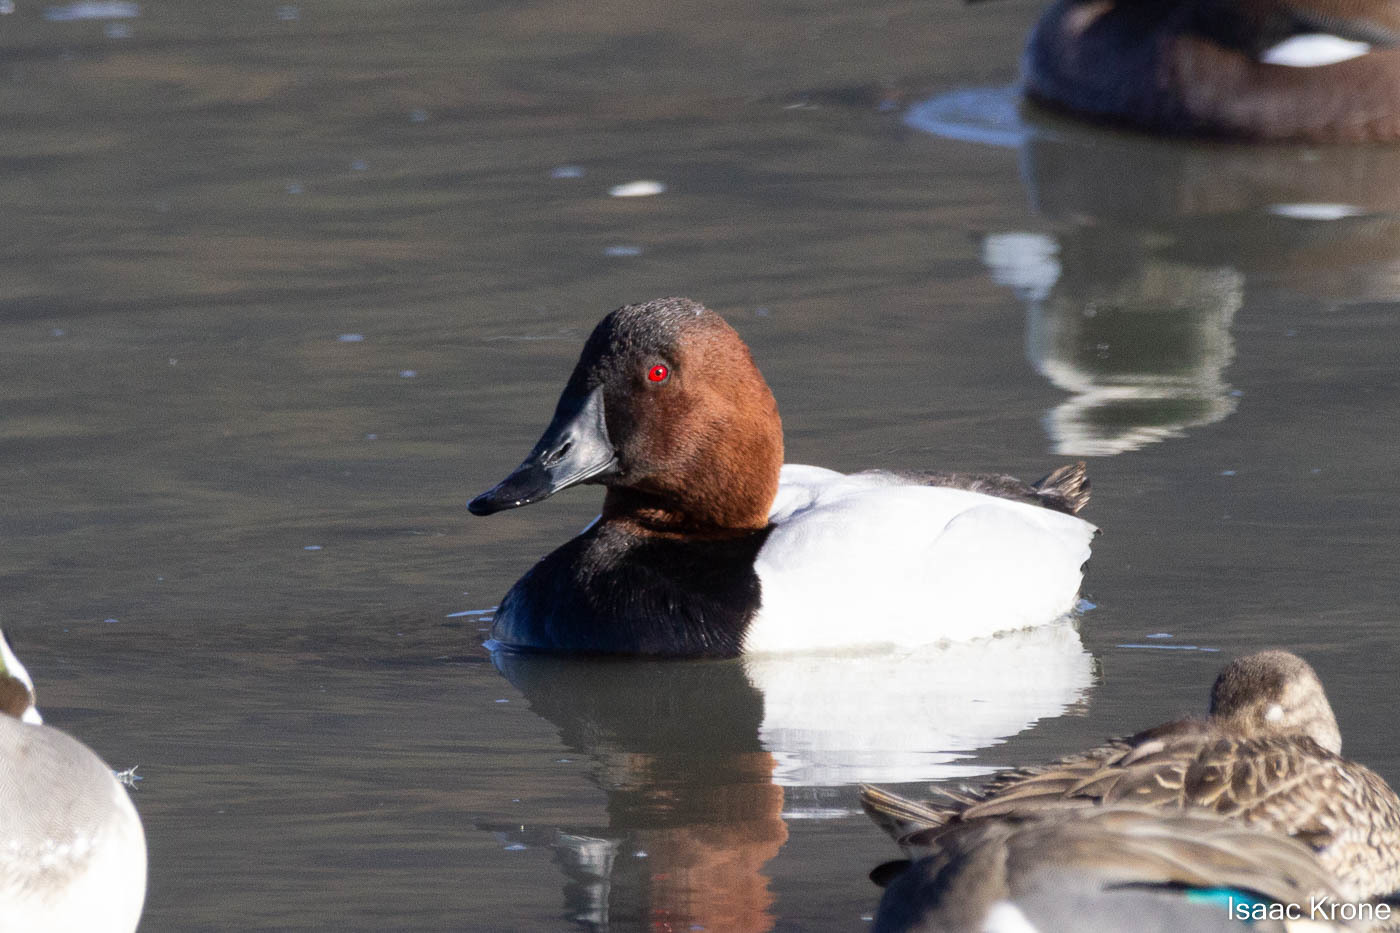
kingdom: Animalia
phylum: Chordata
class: Aves
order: Anseriformes
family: Anatidae
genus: Aythya
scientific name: Aythya valisineria
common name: Canvasback
